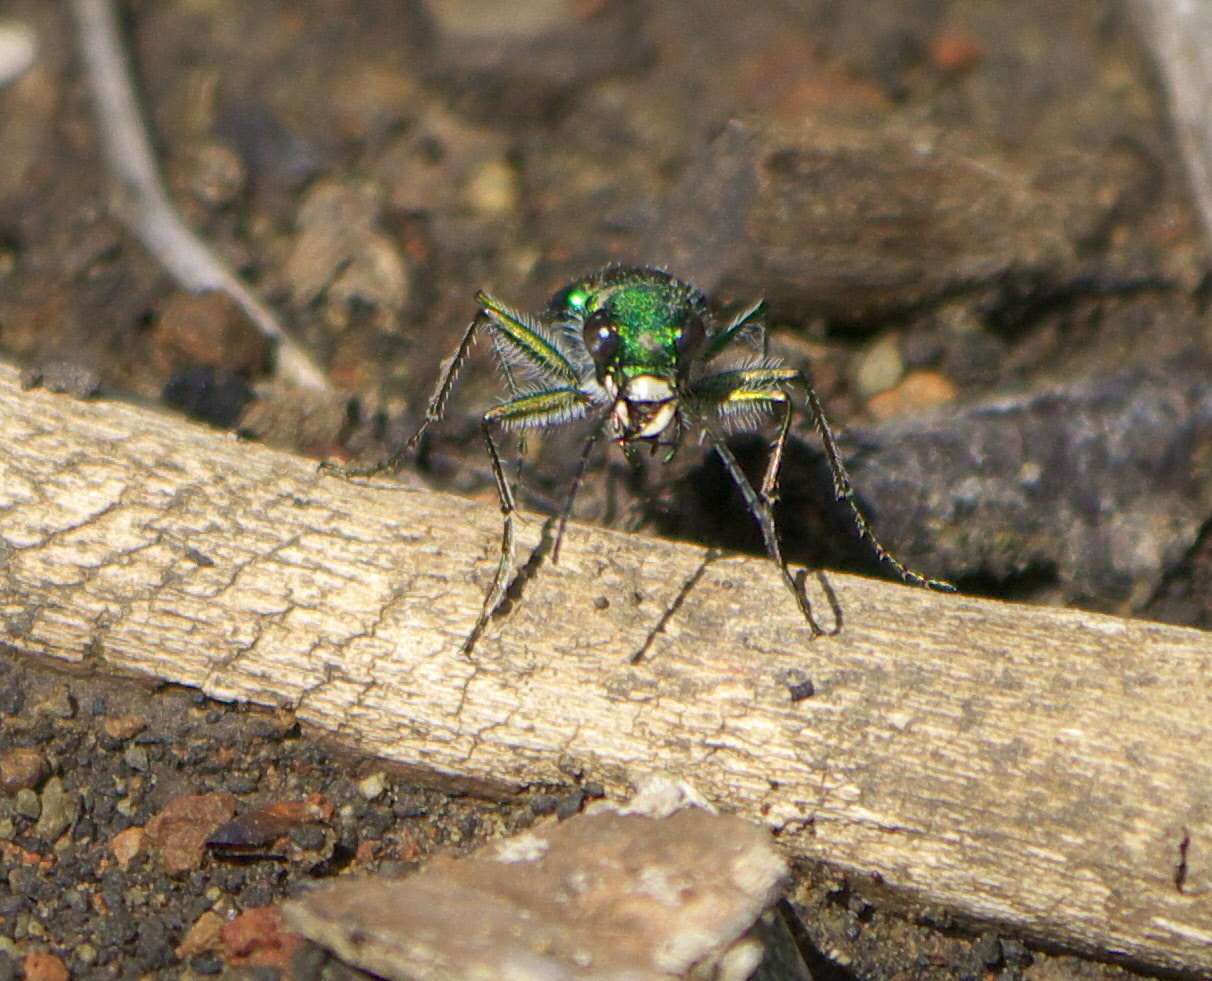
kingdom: Animalia
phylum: Arthropoda
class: Insecta
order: Coleoptera
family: Carabidae
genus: Cicindela
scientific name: Cicindela splendida
